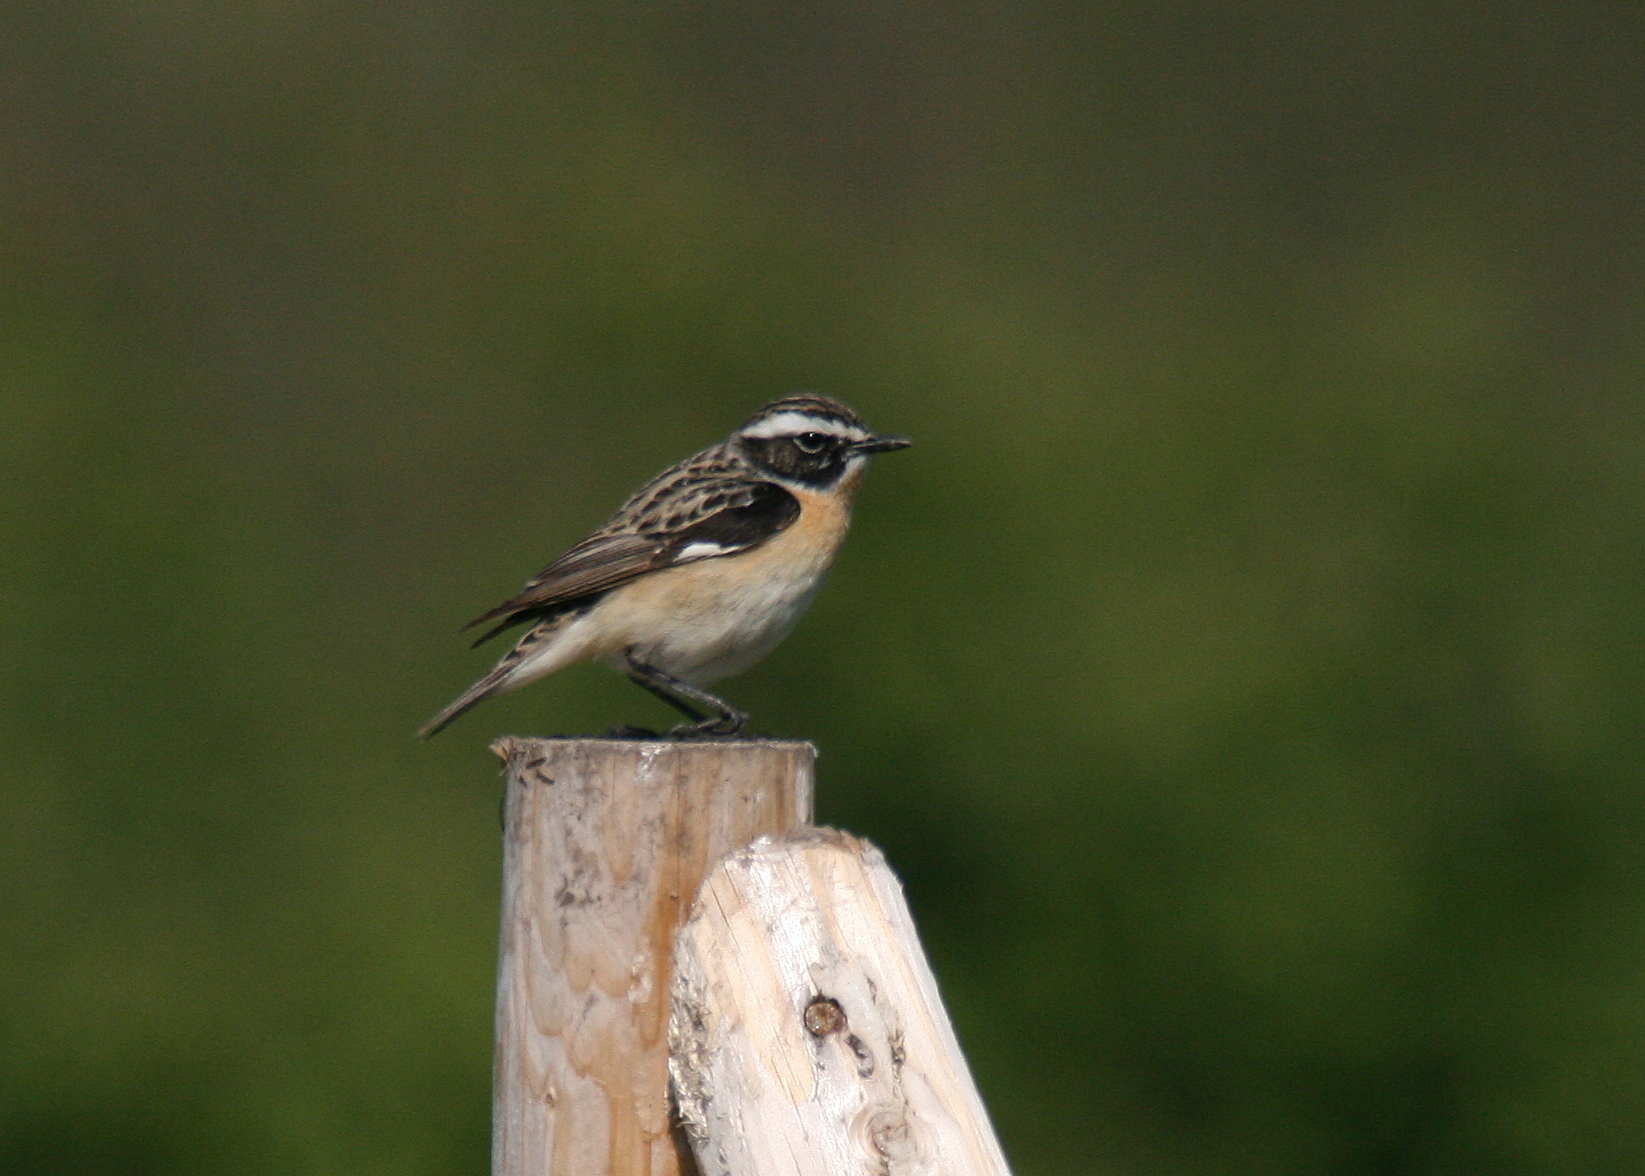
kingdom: Animalia
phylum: Chordata
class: Aves
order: Passeriformes
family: Muscicapidae
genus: Saxicola
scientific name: Saxicola rubetra
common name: Whinchat
